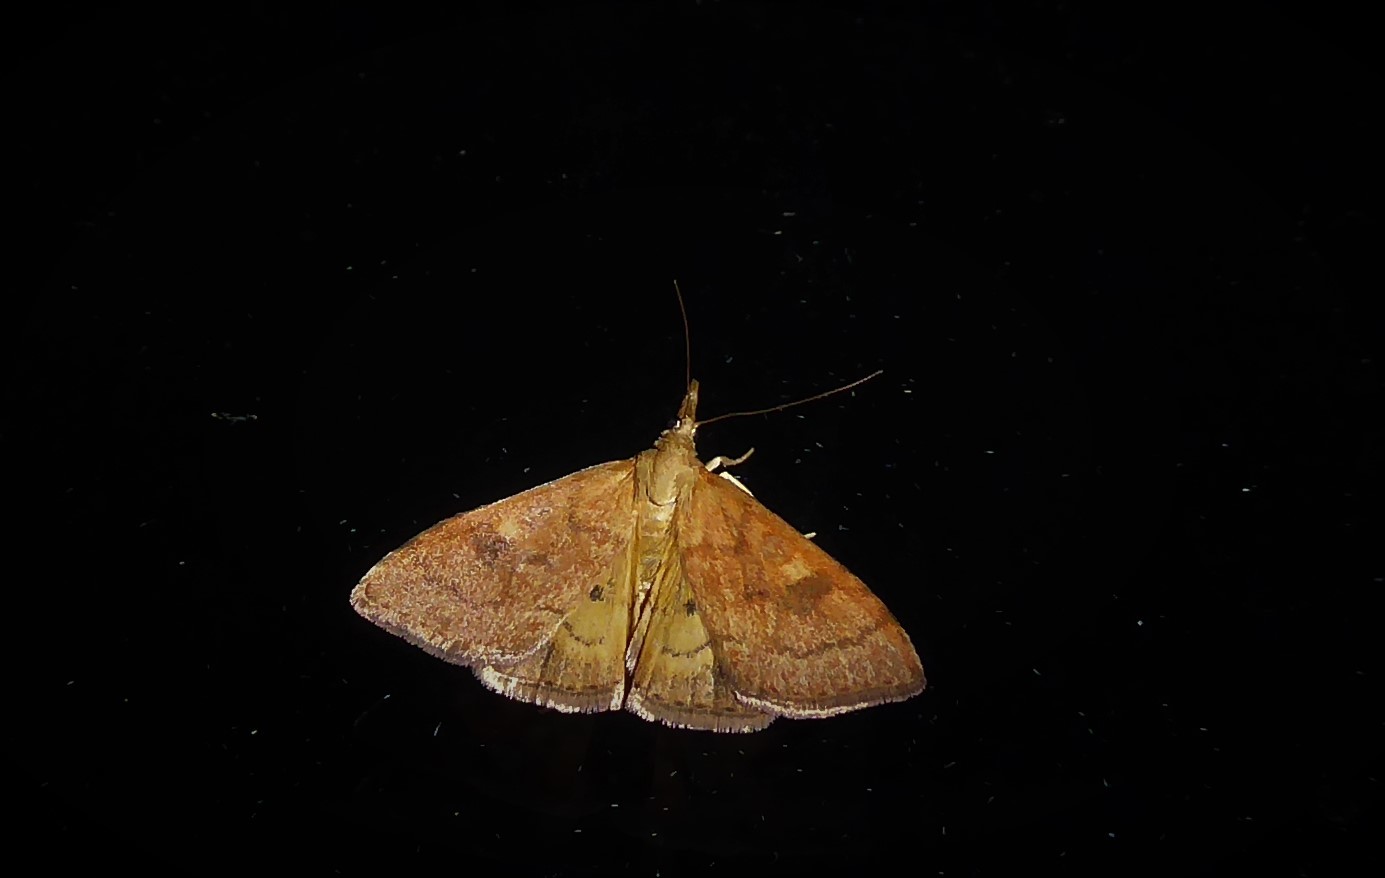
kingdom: Animalia
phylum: Arthropoda
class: Insecta
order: Lepidoptera
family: Crambidae
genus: Udea
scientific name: Udea Mnesictena flavidalis
